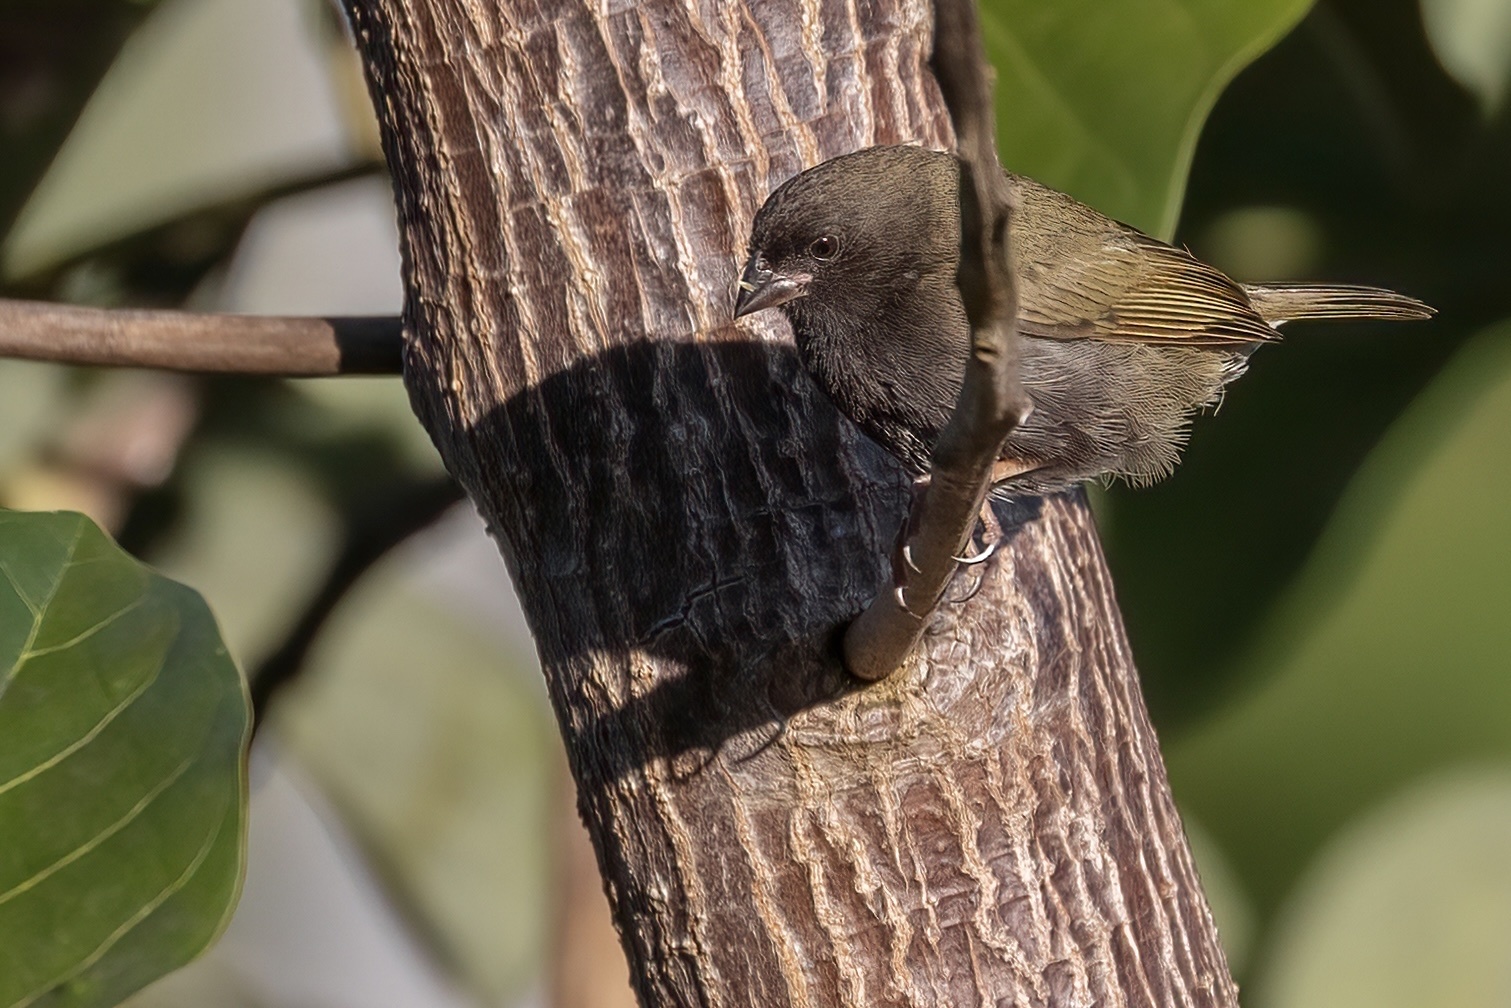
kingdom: Animalia
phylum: Chordata
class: Aves
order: Passeriformes
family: Thraupidae
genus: Melanospiza
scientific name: Melanospiza bicolor
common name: Black-faced grassquit
